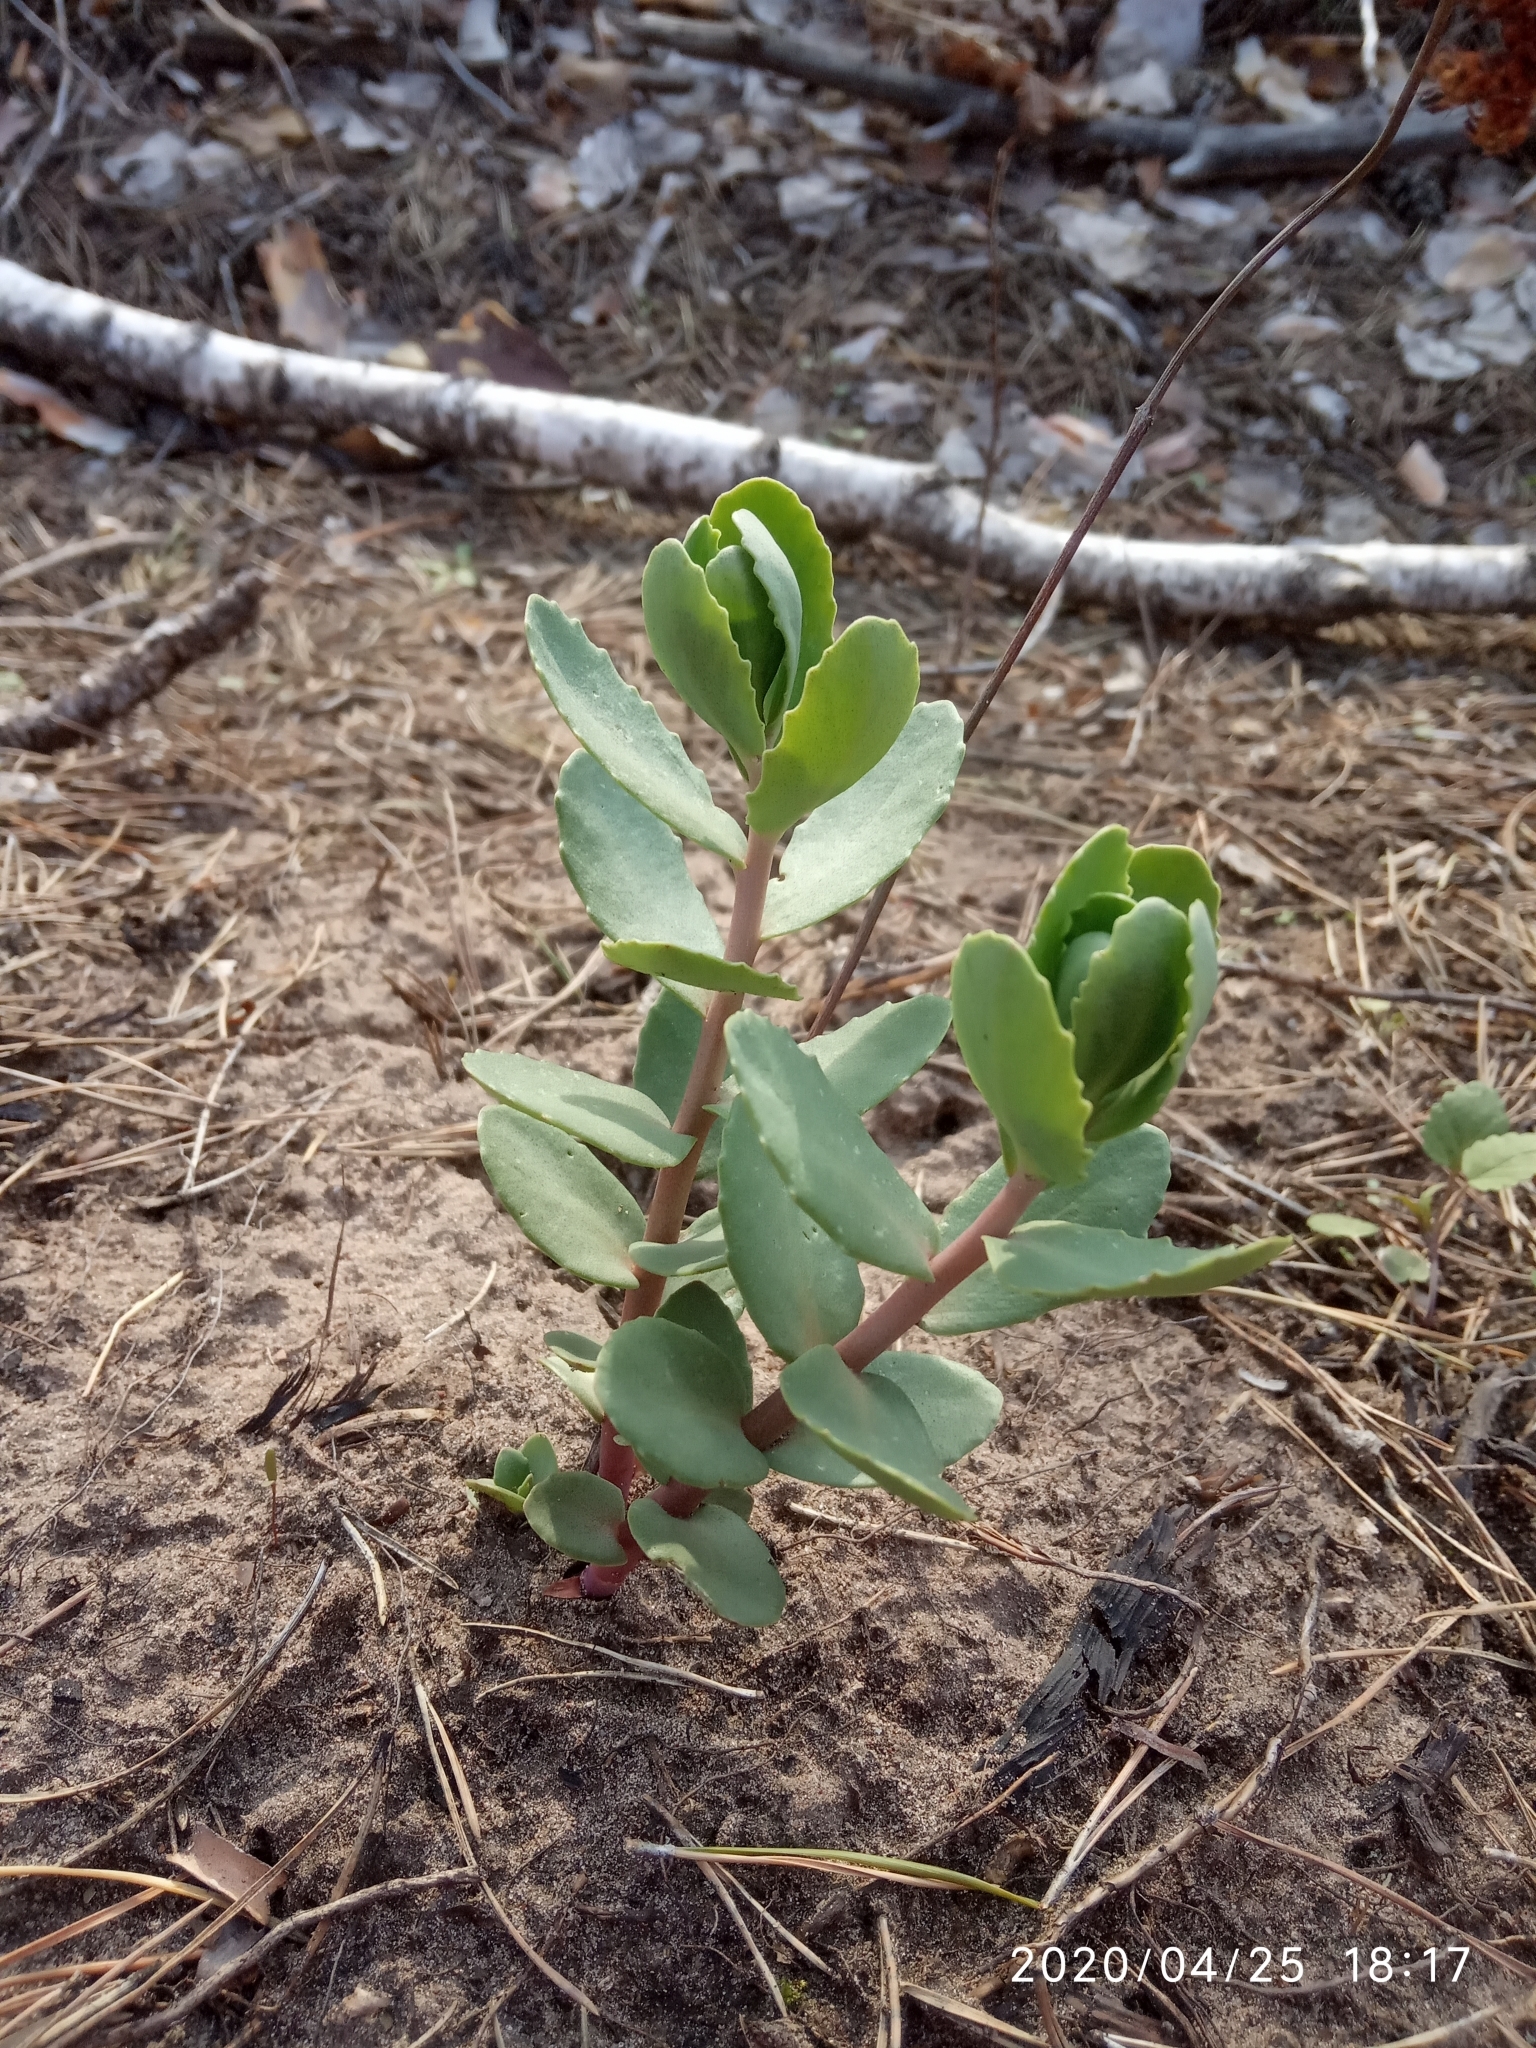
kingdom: Plantae
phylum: Tracheophyta
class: Magnoliopsida
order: Saxifragales
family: Crassulaceae
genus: Hylotelephium
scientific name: Hylotelephium telephium
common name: Live-forever
